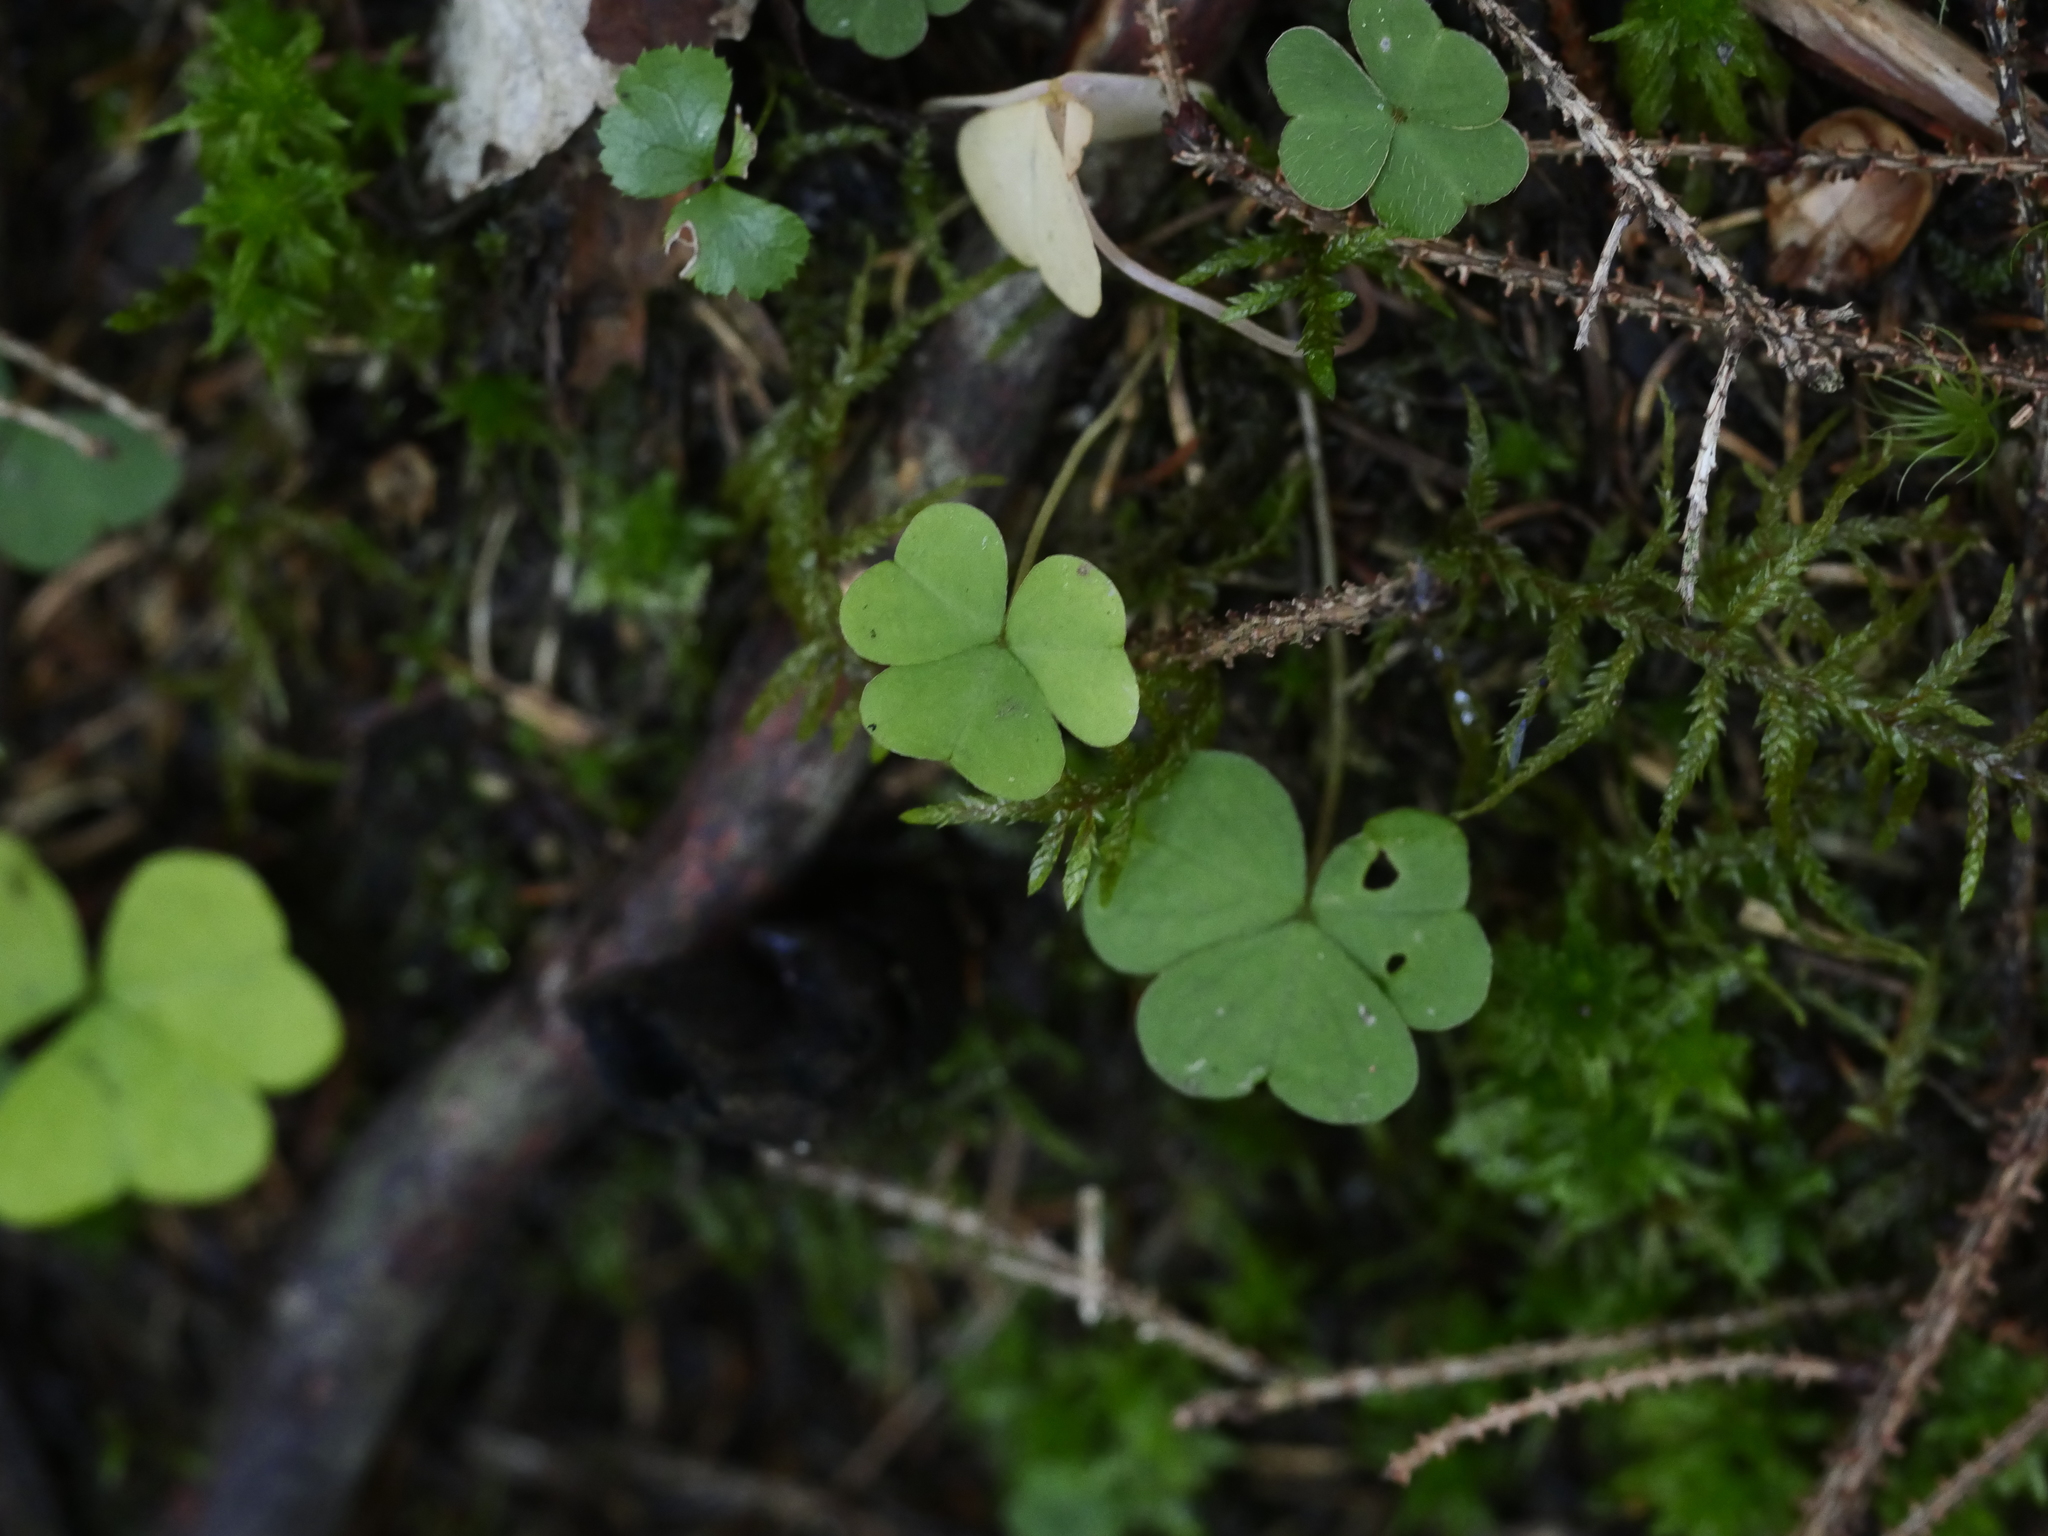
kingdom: Plantae
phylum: Tracheophyta
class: Magnoliopsida
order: Oxalidales
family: Oxalidaceae
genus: Oxalis
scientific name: Oxalis montana
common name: American wood-sorrel
